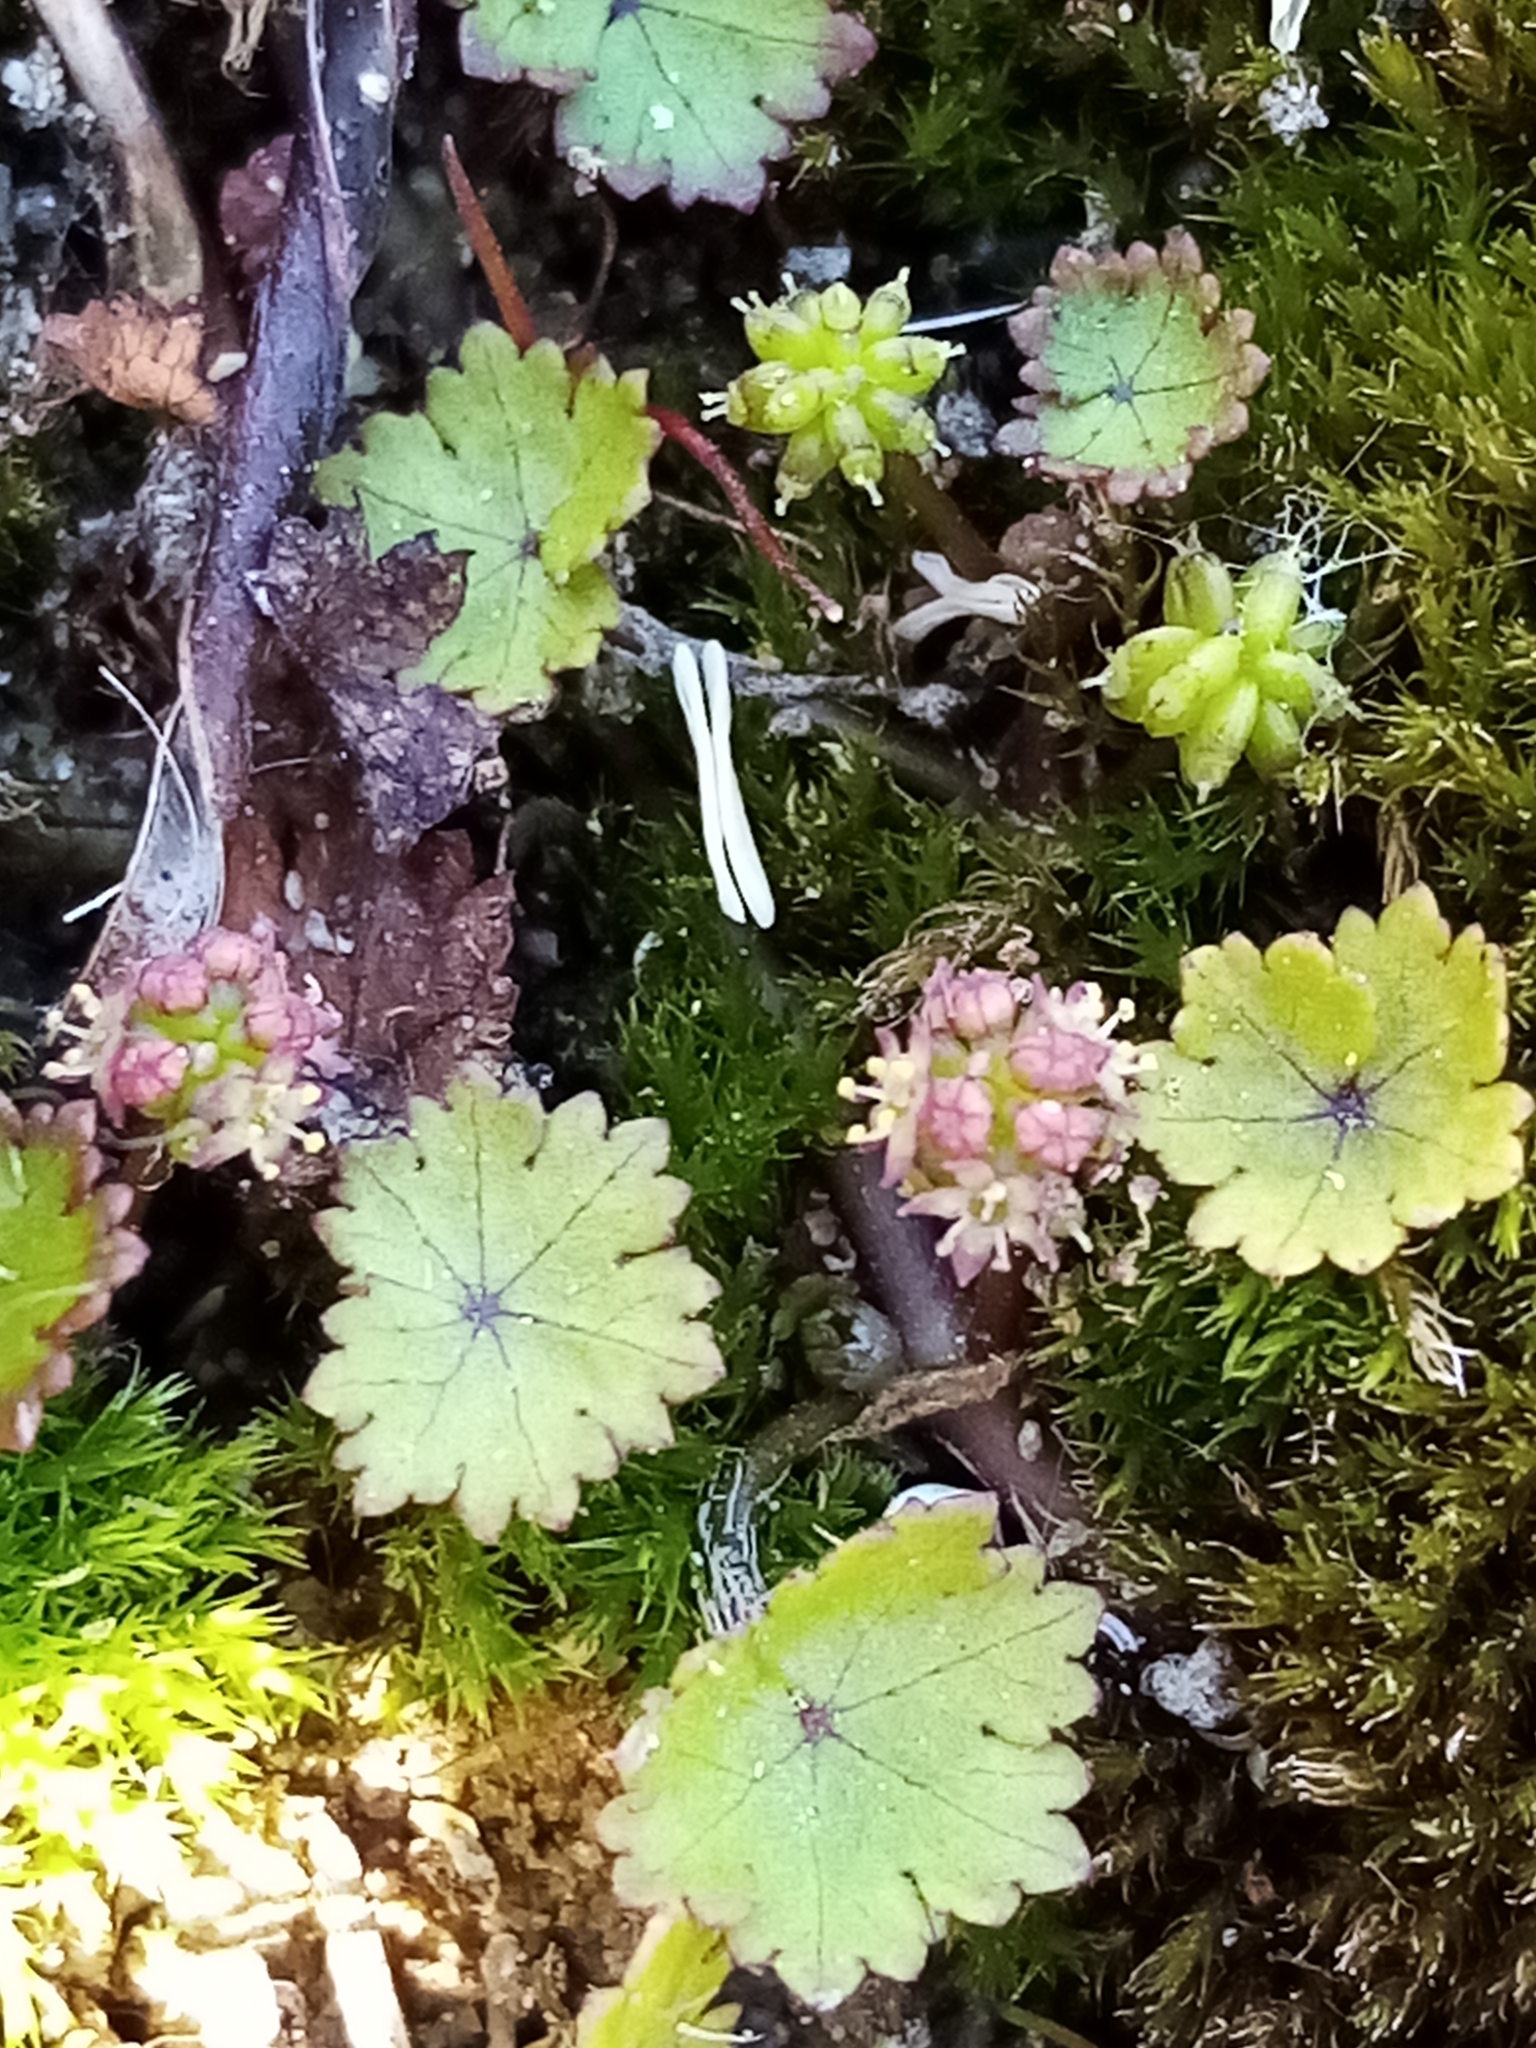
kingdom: Plantae
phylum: Tracheophyta
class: Magnoliopsida
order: Apiales
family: Araliaceae
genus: Hydrocotyle
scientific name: Hydrocotyle microphylla
